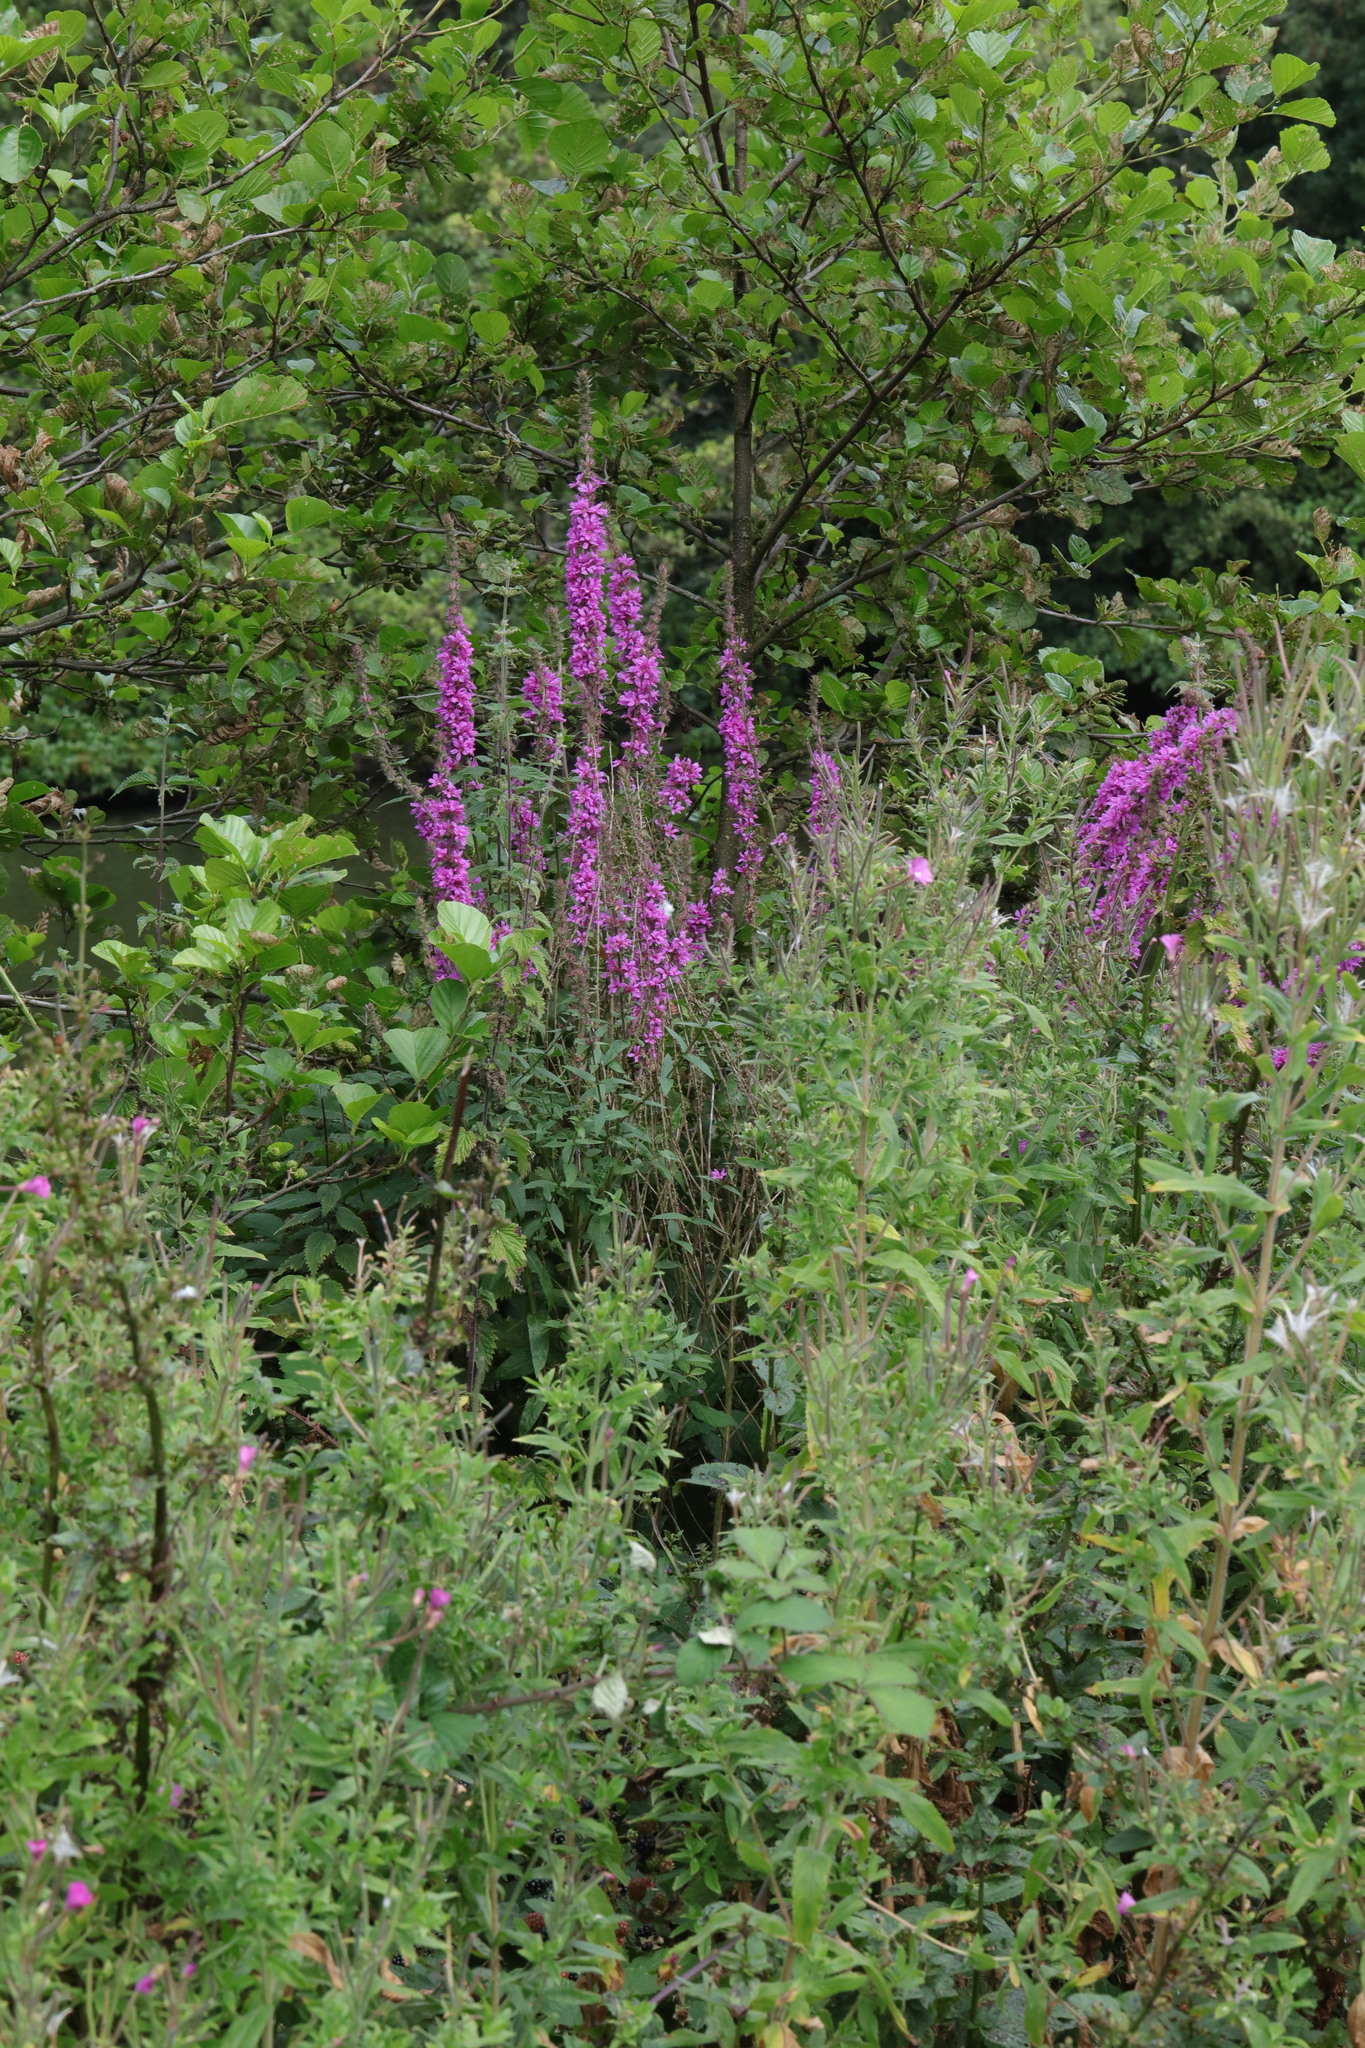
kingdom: Plantae
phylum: Tracheophyta
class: Magnoliopsida
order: Myrtales
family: Lythraceae
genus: Lythrum
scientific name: Lythrum salicaria
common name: Purple loosestrife
